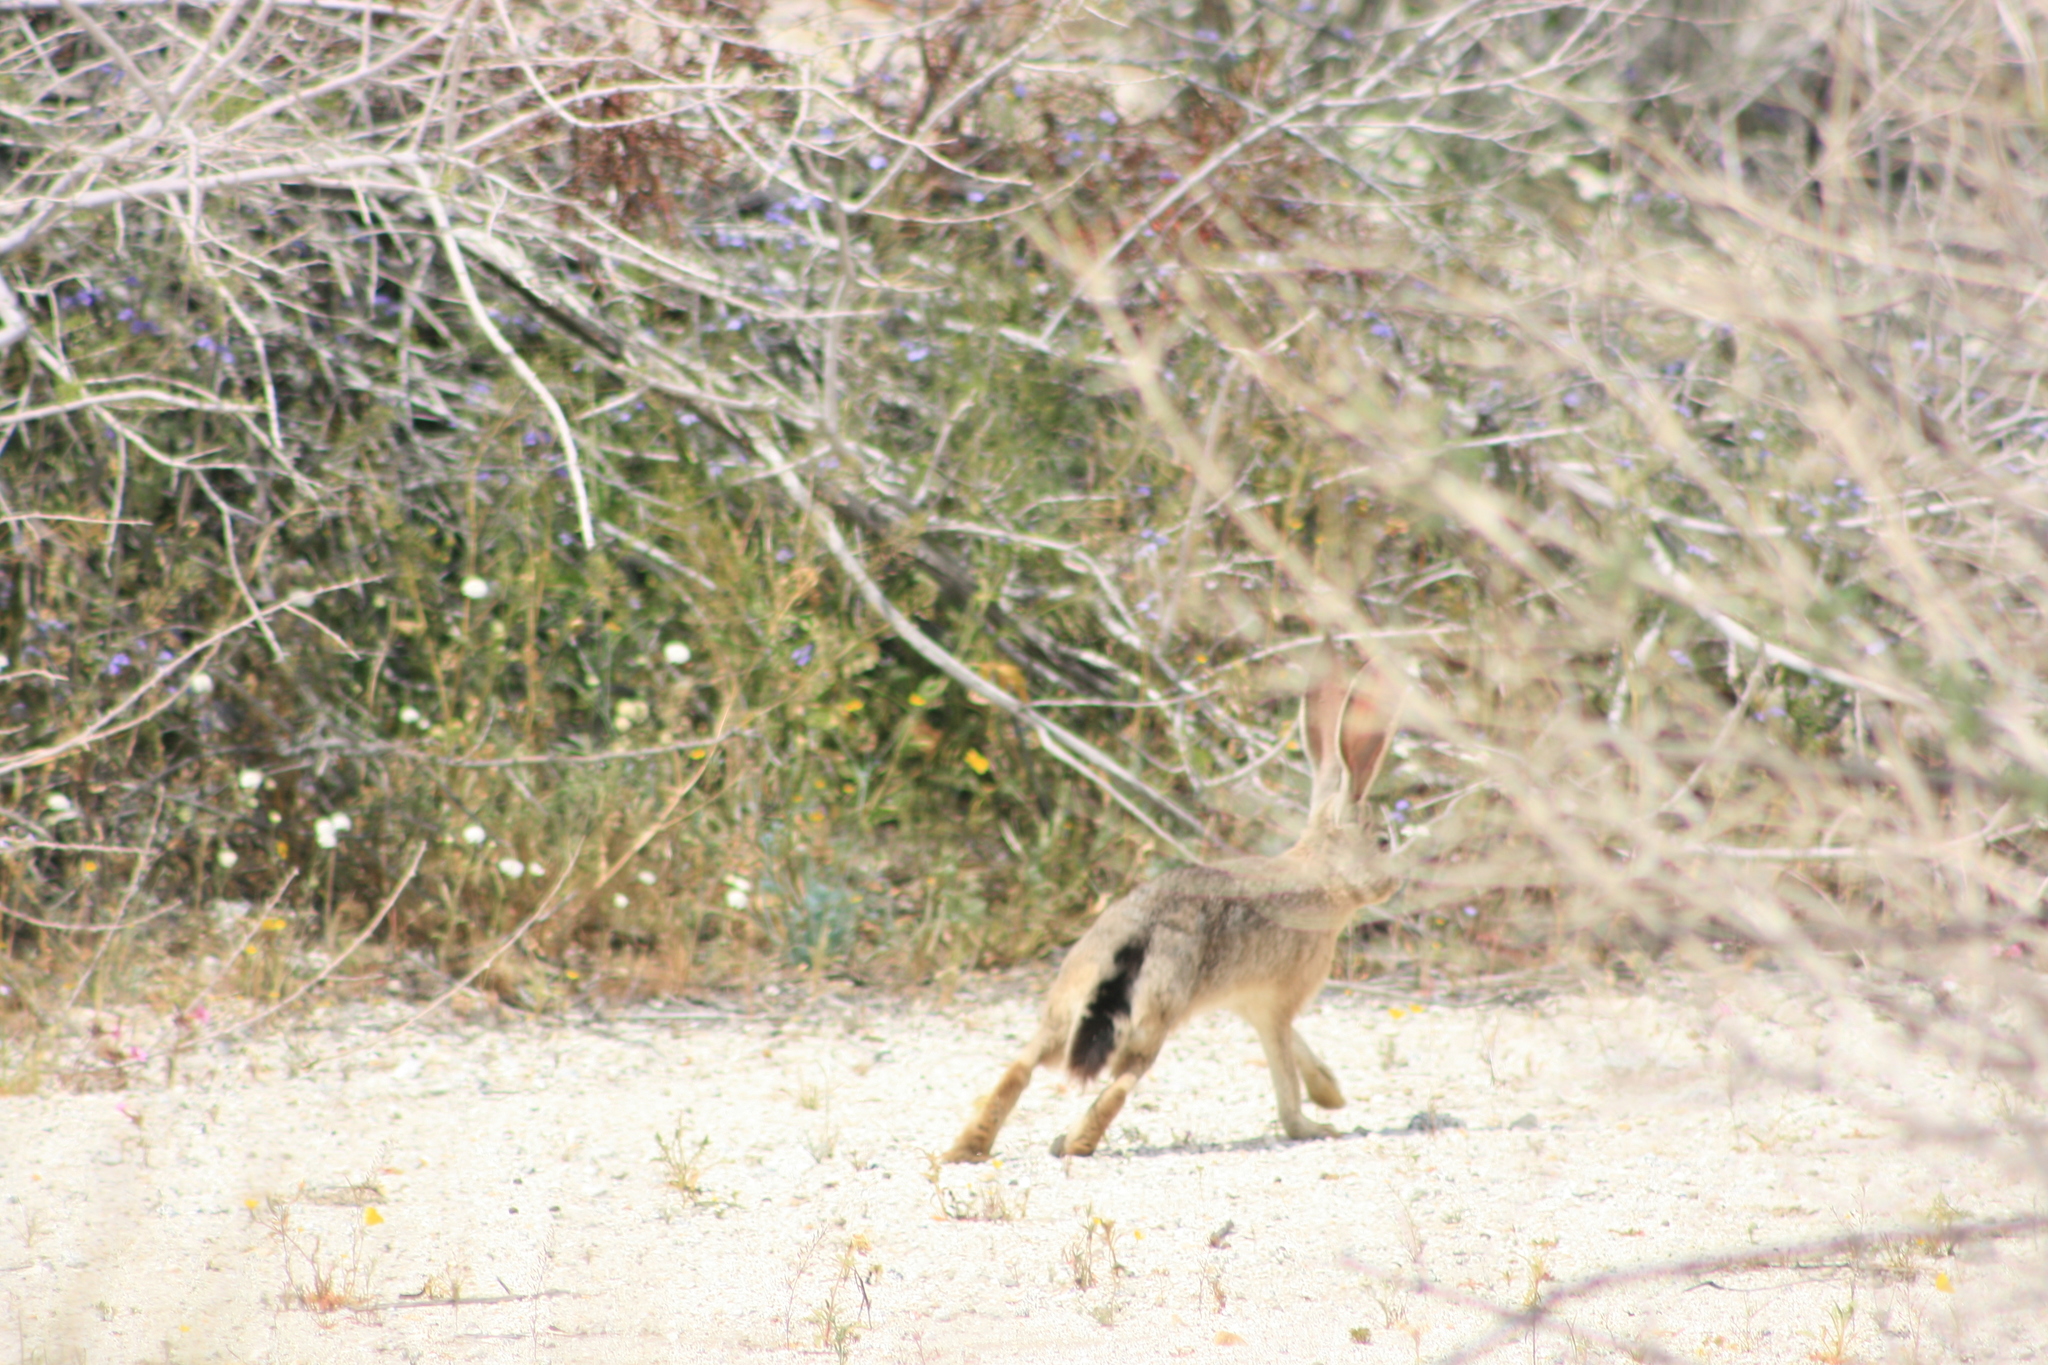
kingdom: Animalia
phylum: Chordata
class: Mammalia
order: Lagomorpha
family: Leporidae
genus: Lepus
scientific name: Lepus californicus
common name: Black-tailed jackrabbit
